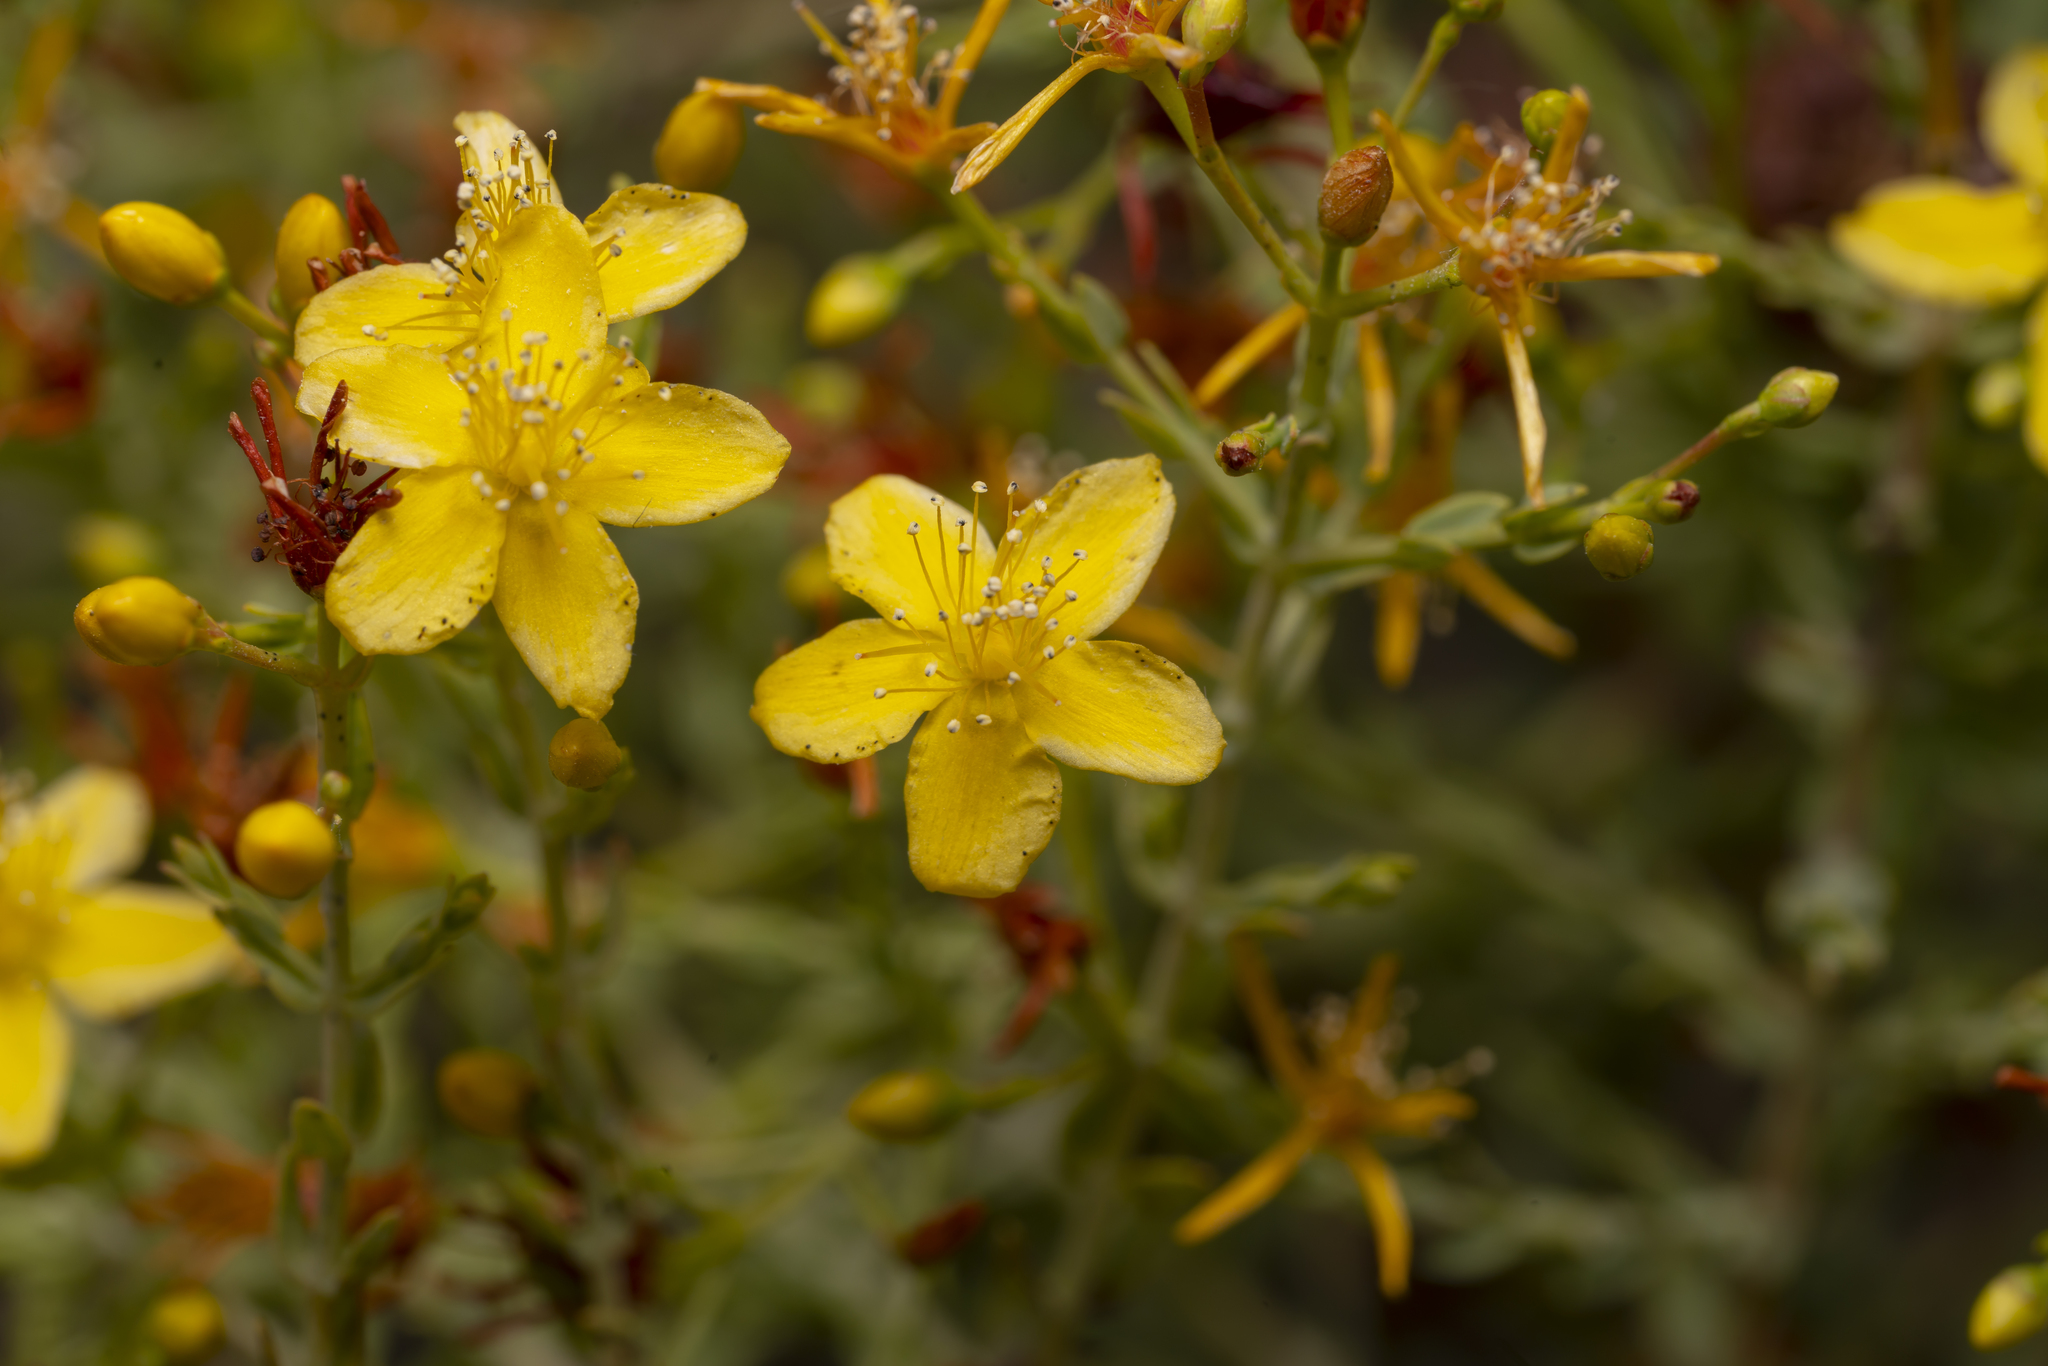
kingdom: Plantae
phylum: Tracheophyta
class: Magnoliopsida
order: Malpighiales
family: Hypericaceae
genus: Hypericum
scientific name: Hypericum triquetrifolium
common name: Tangled hypericum
